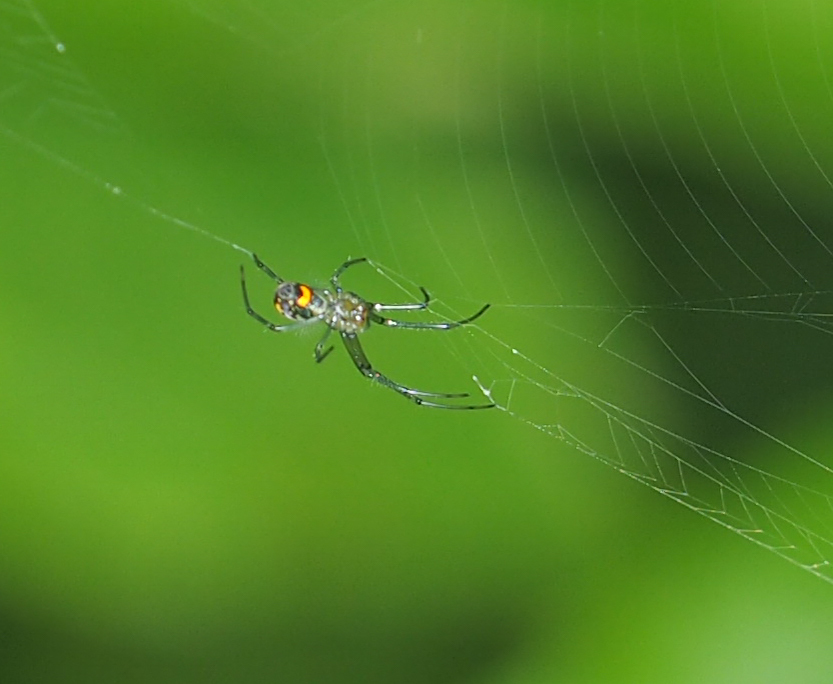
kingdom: Animalia
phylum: Arthropoda
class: Arachnida
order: Araneae
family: Tetragnathidae
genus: Leucauge
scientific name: Leucauge venusta
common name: Longjawed orb weavers
